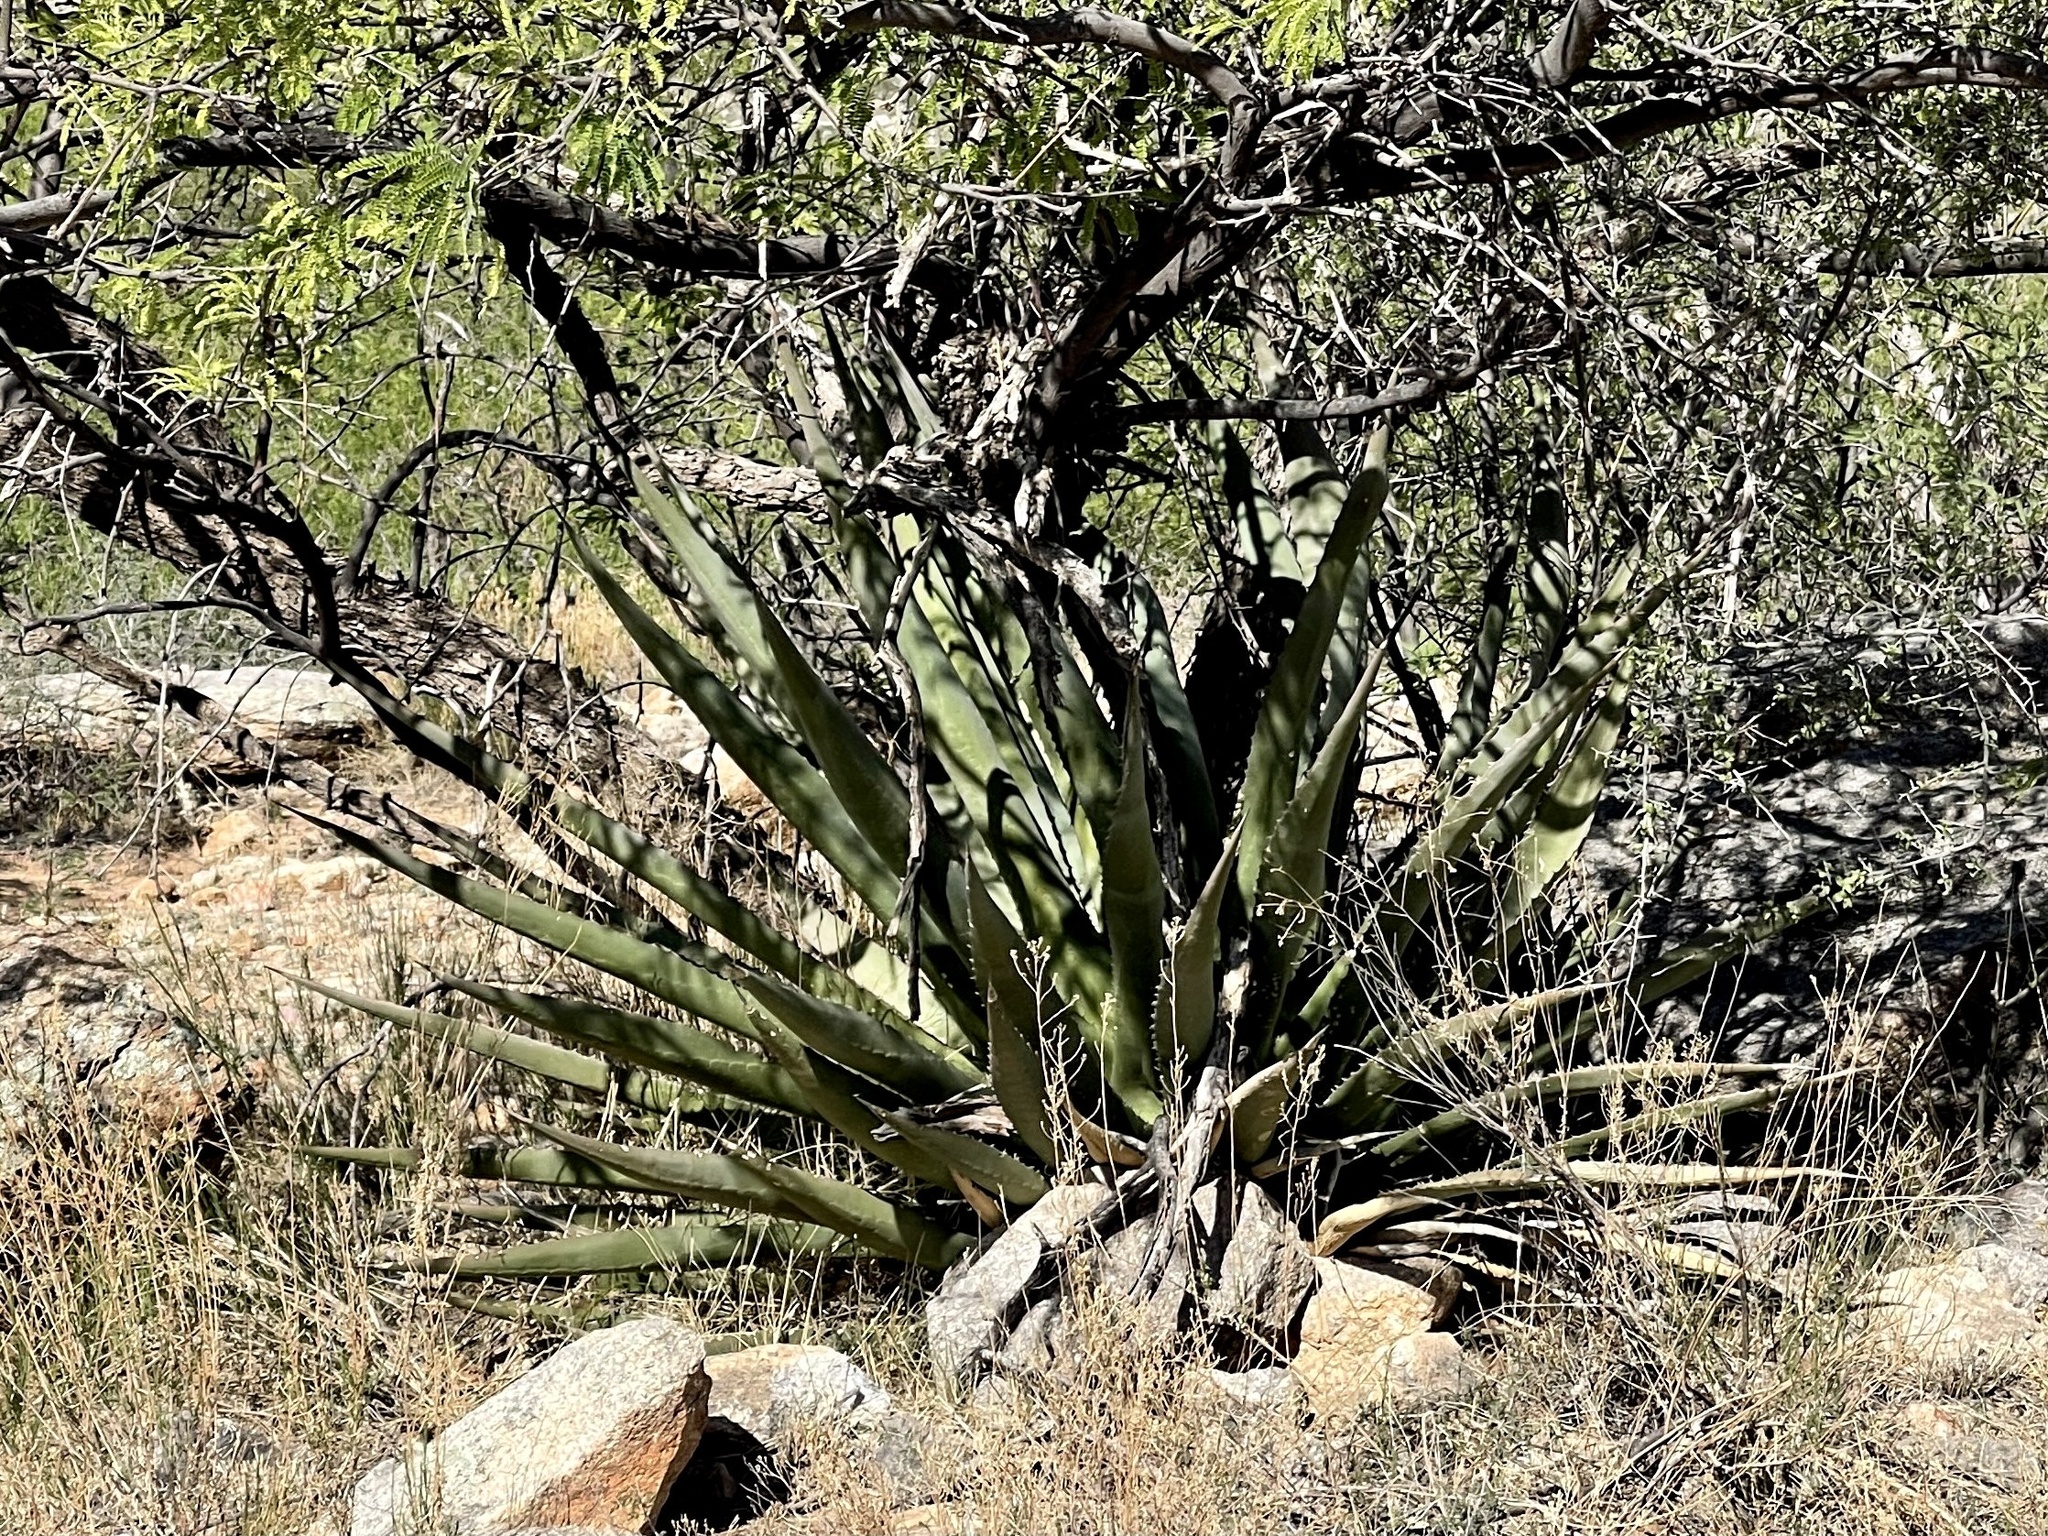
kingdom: Plantae
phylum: Tracheophyta
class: Liliopsida
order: Asparagales
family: Asparagaceae
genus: Agave
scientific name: Agave palmeri
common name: Palmer agave
